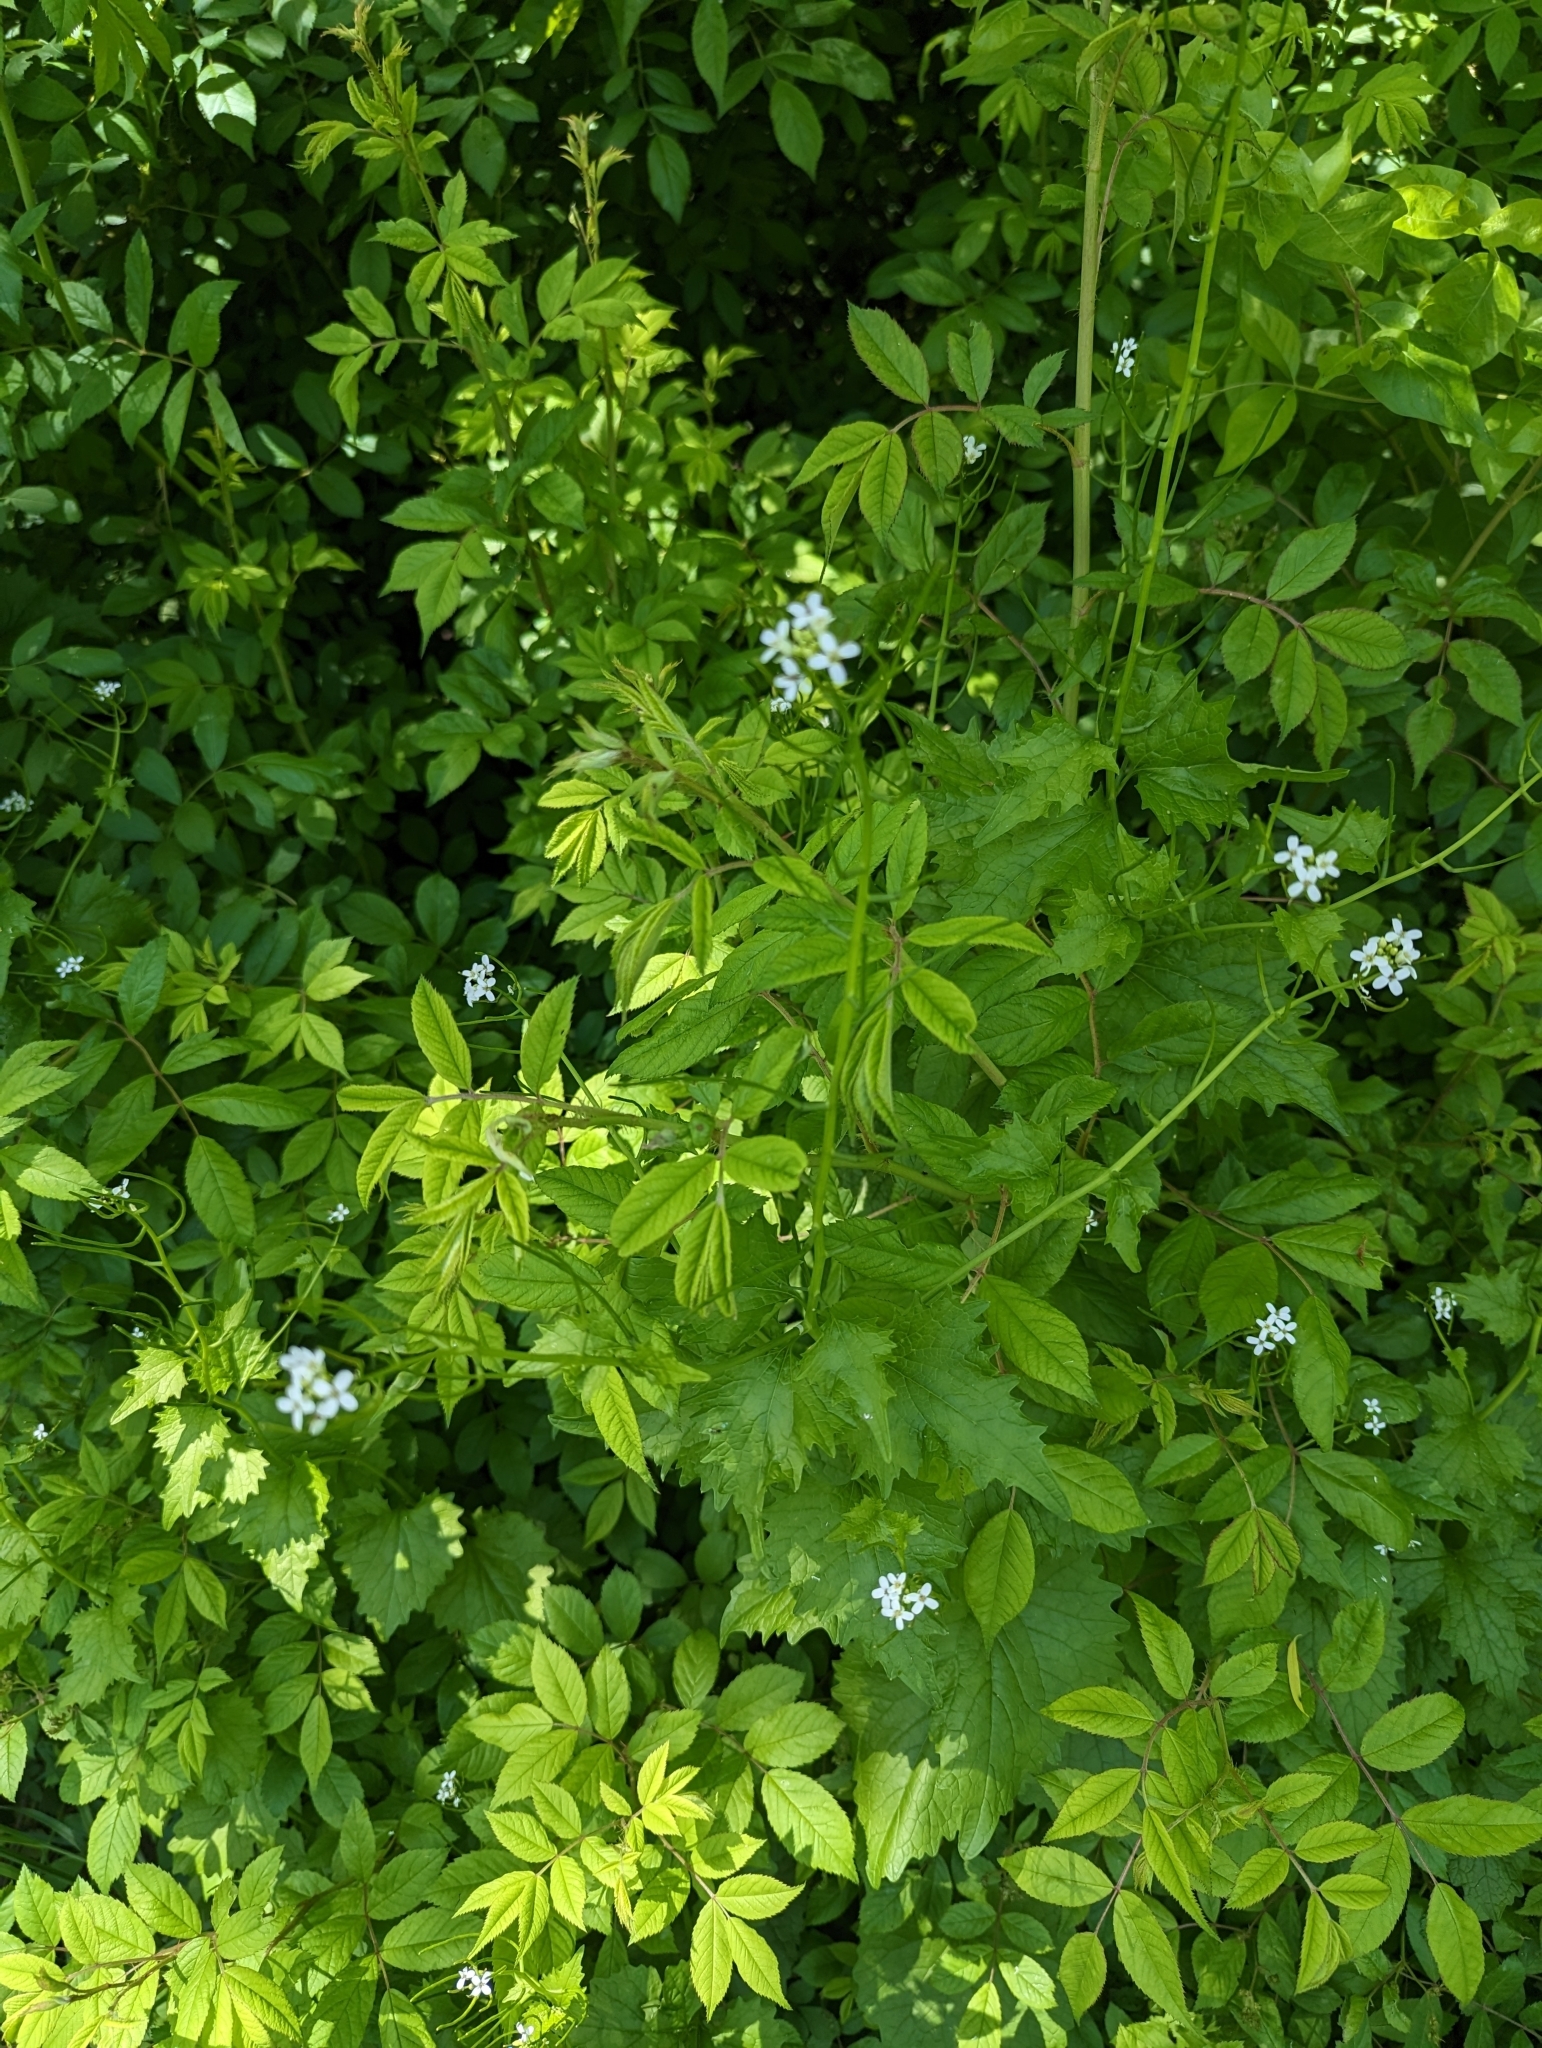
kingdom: Plantae
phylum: Tracheophyta
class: Magnoliopsida
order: Brassicales
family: Brassicaceae
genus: Alliaria
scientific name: Alliaria petiolata
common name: Garlic mustard
